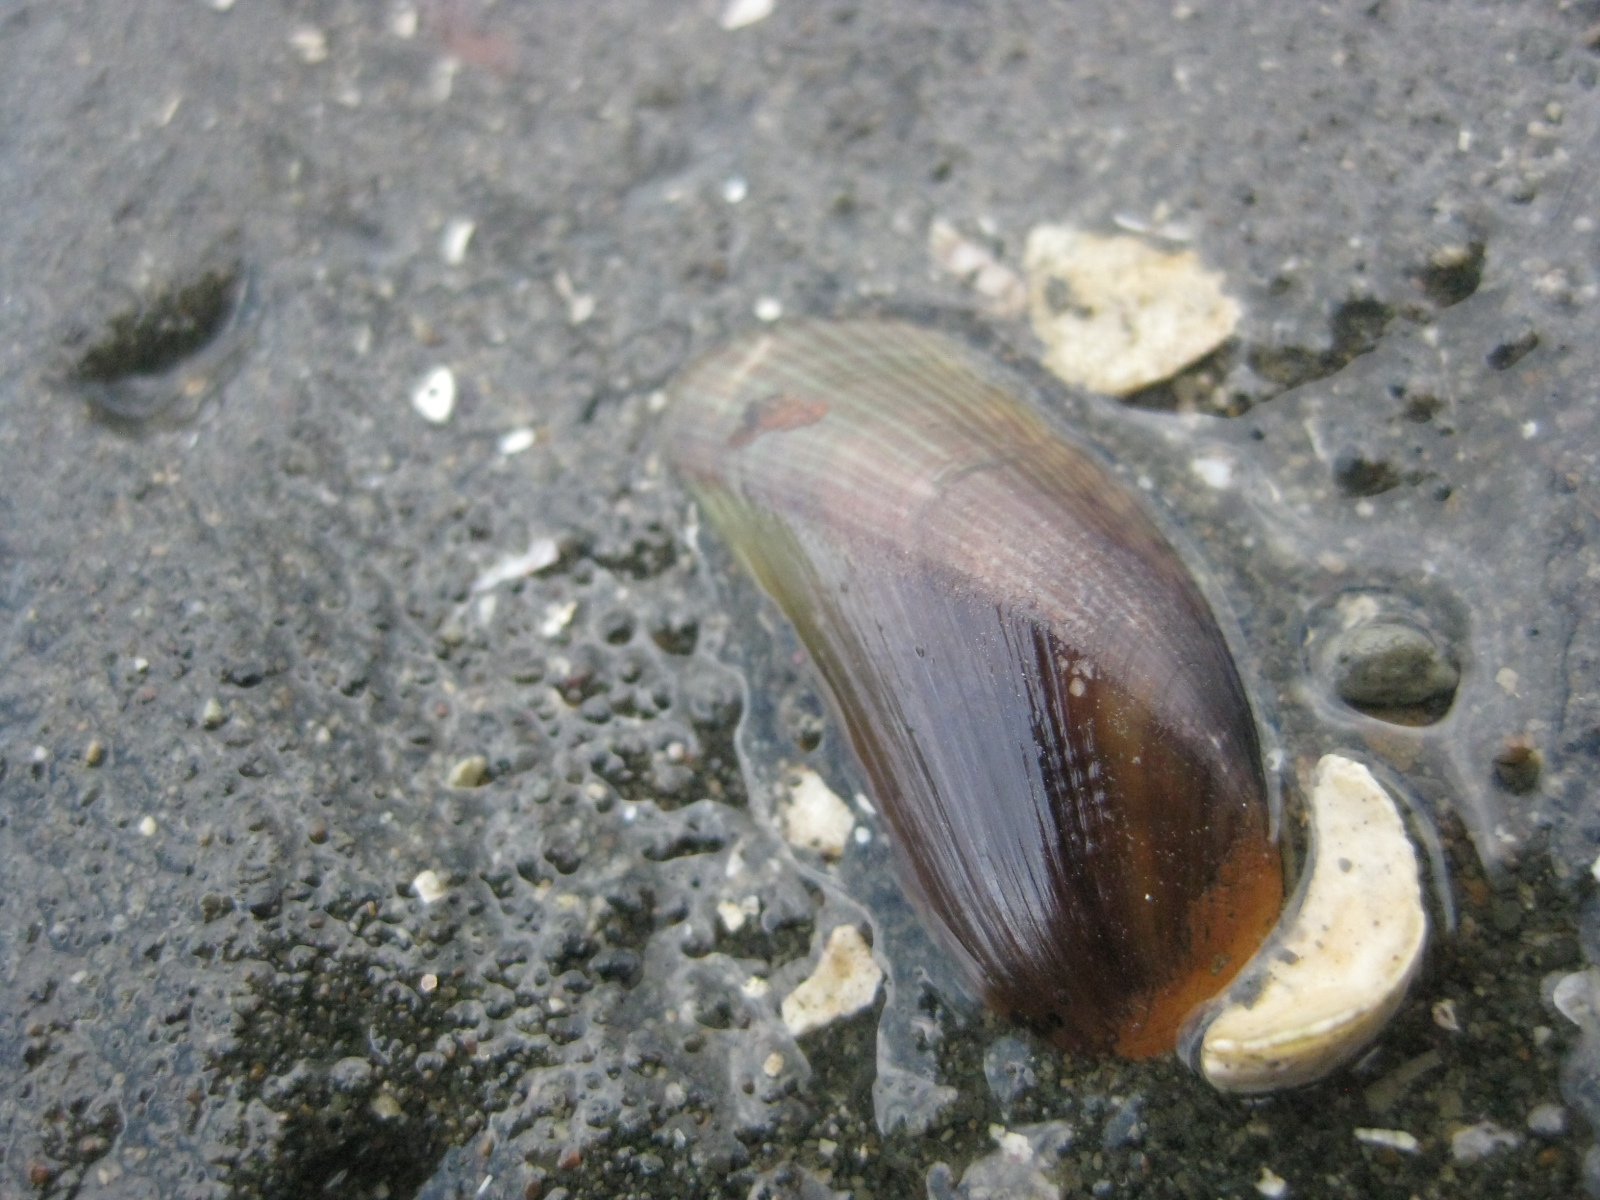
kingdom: Animalia
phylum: Mollusca
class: Bivalvia
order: Mytilida
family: Mytilidae
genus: Arcuatula
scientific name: Arcuatula senhousia
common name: Asian mussel
